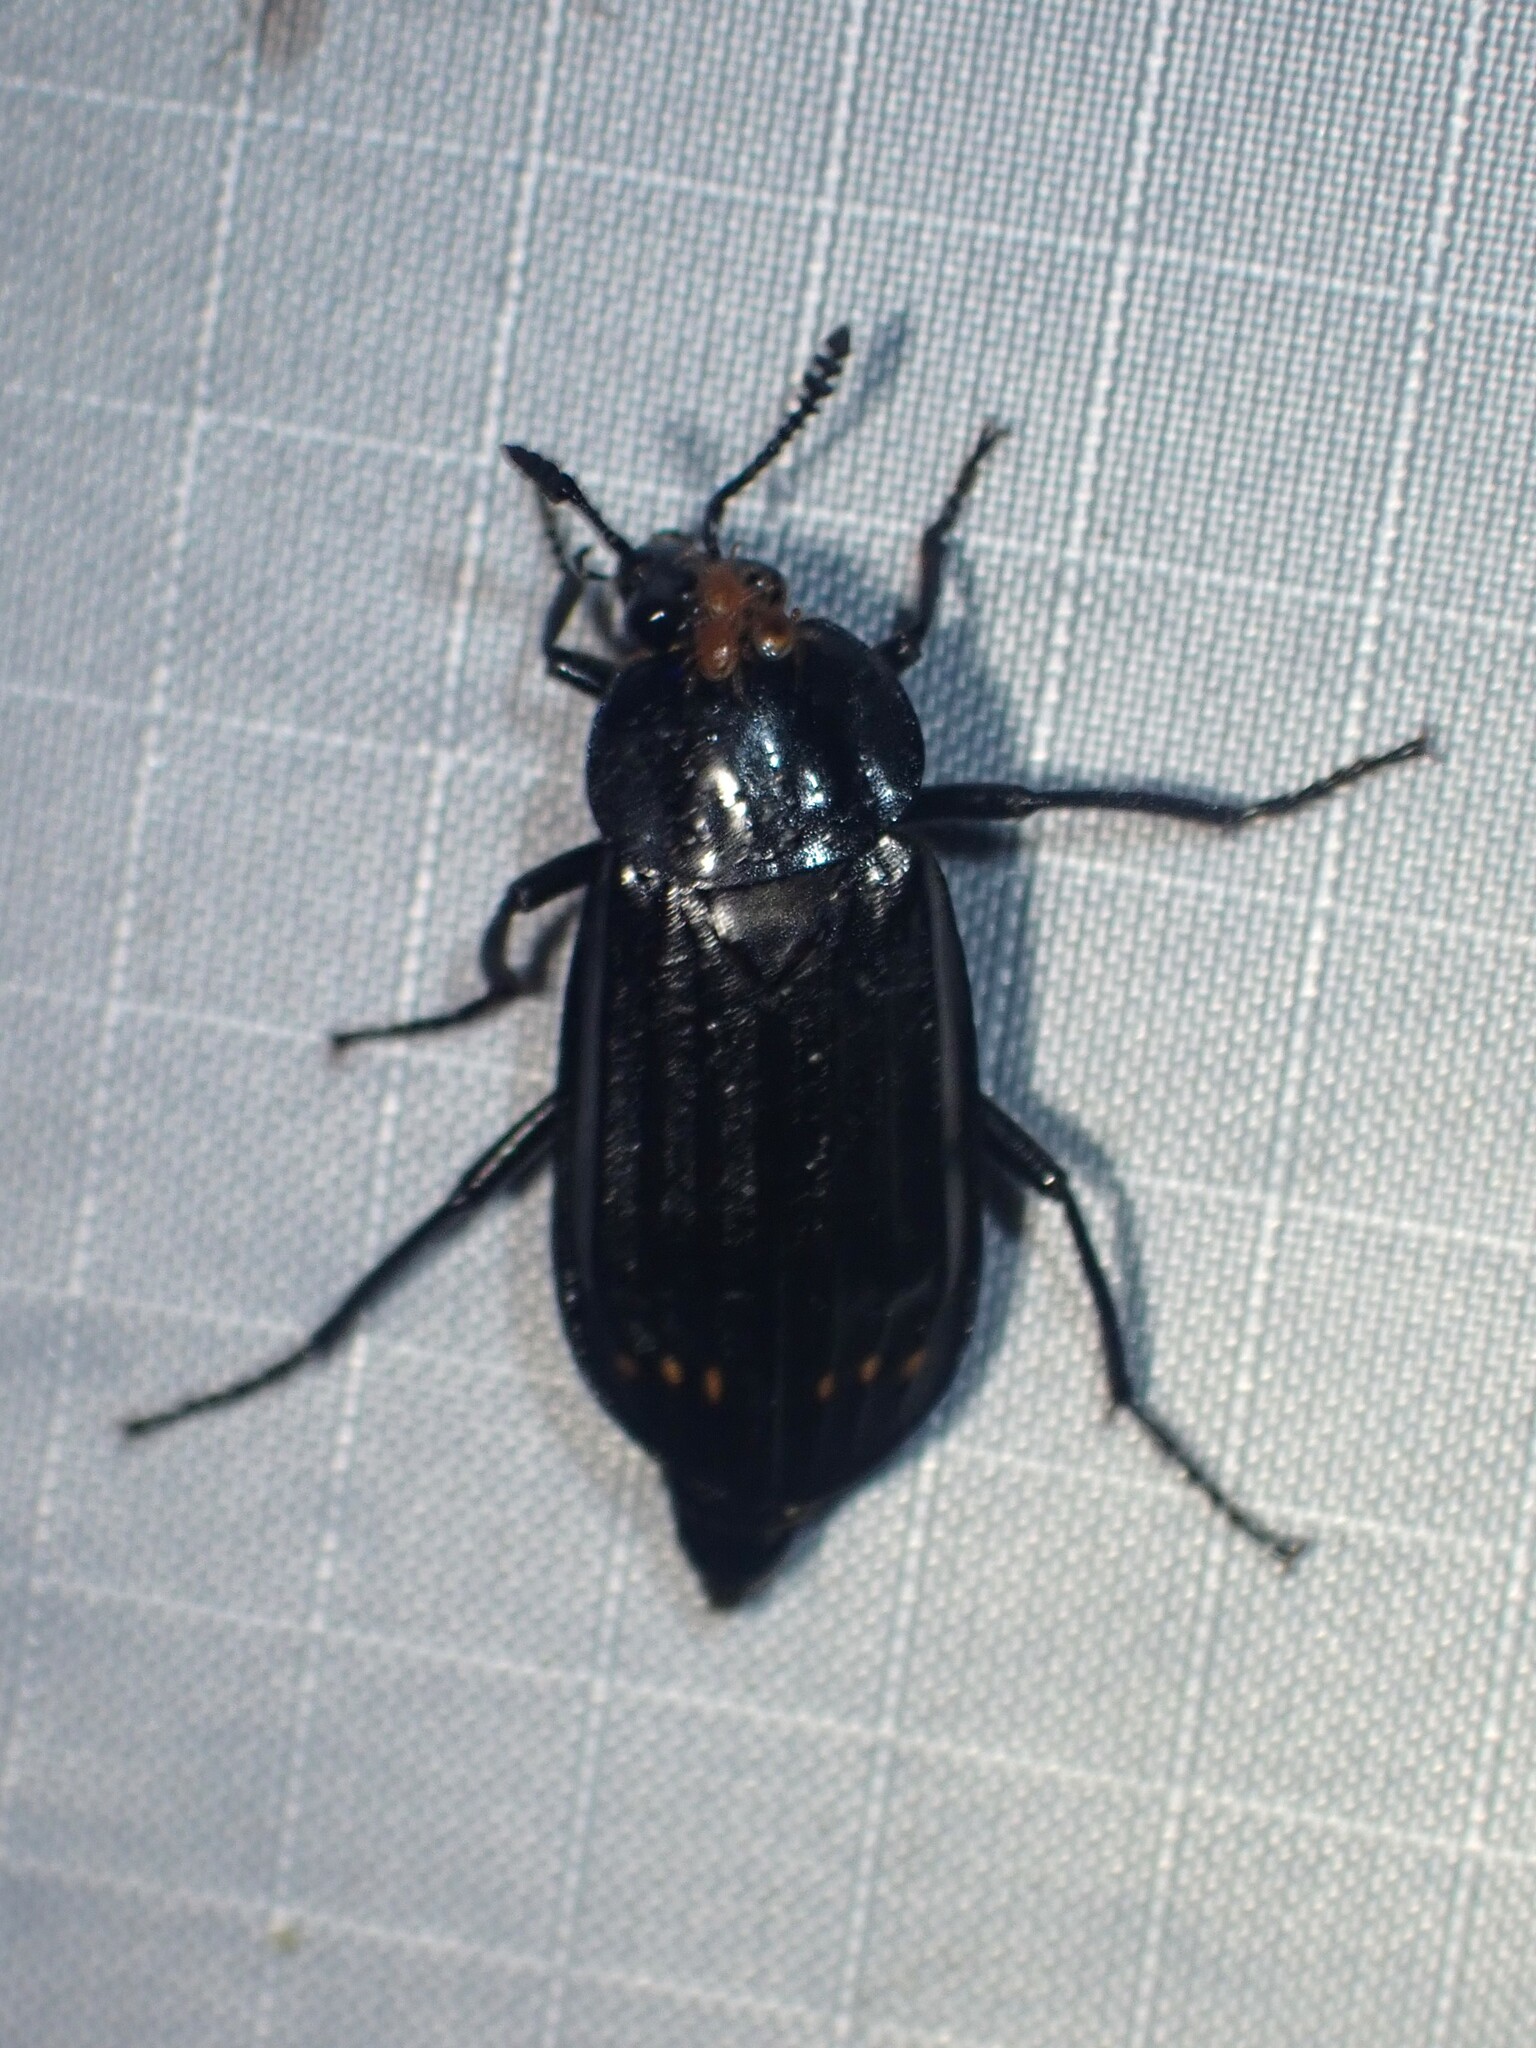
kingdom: Animalia
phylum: Arthropoda
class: Insecta
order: Coleoptera
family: Staphylinidae
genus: Necrodes
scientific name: Necrodes surinamensis
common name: Red-lined carrion beetle
